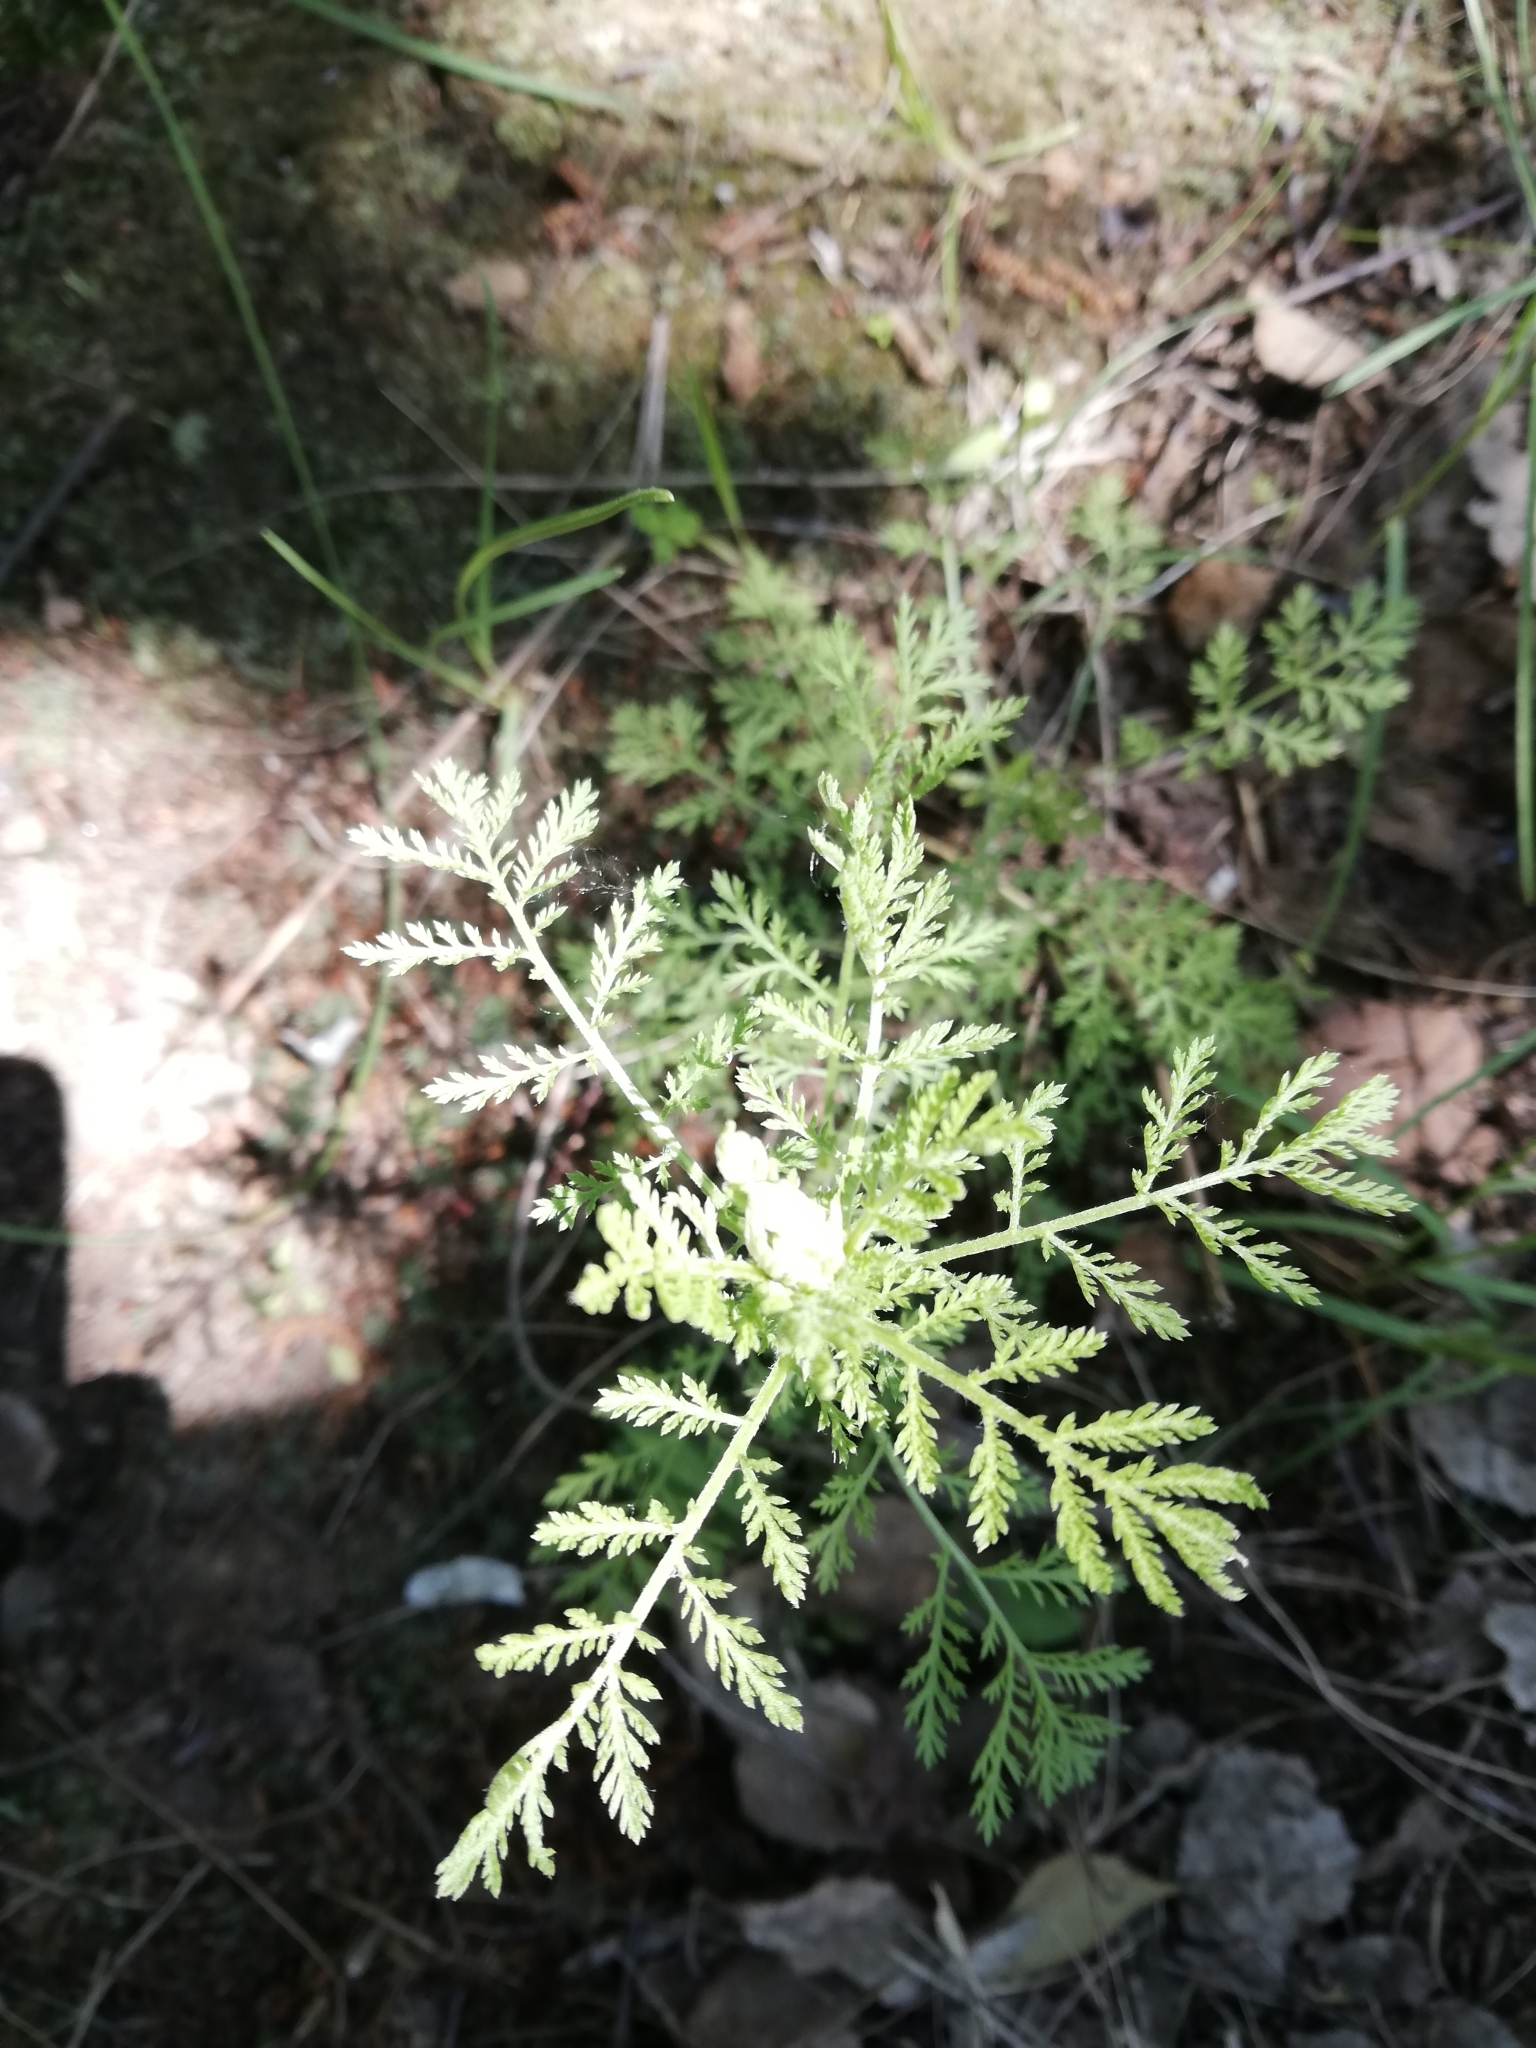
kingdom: Plantae
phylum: Tracheophyta
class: Magnoliopsida
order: Asterales
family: Asteraceae
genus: Cota
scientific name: Cota tinctoria
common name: Golden chamomile
